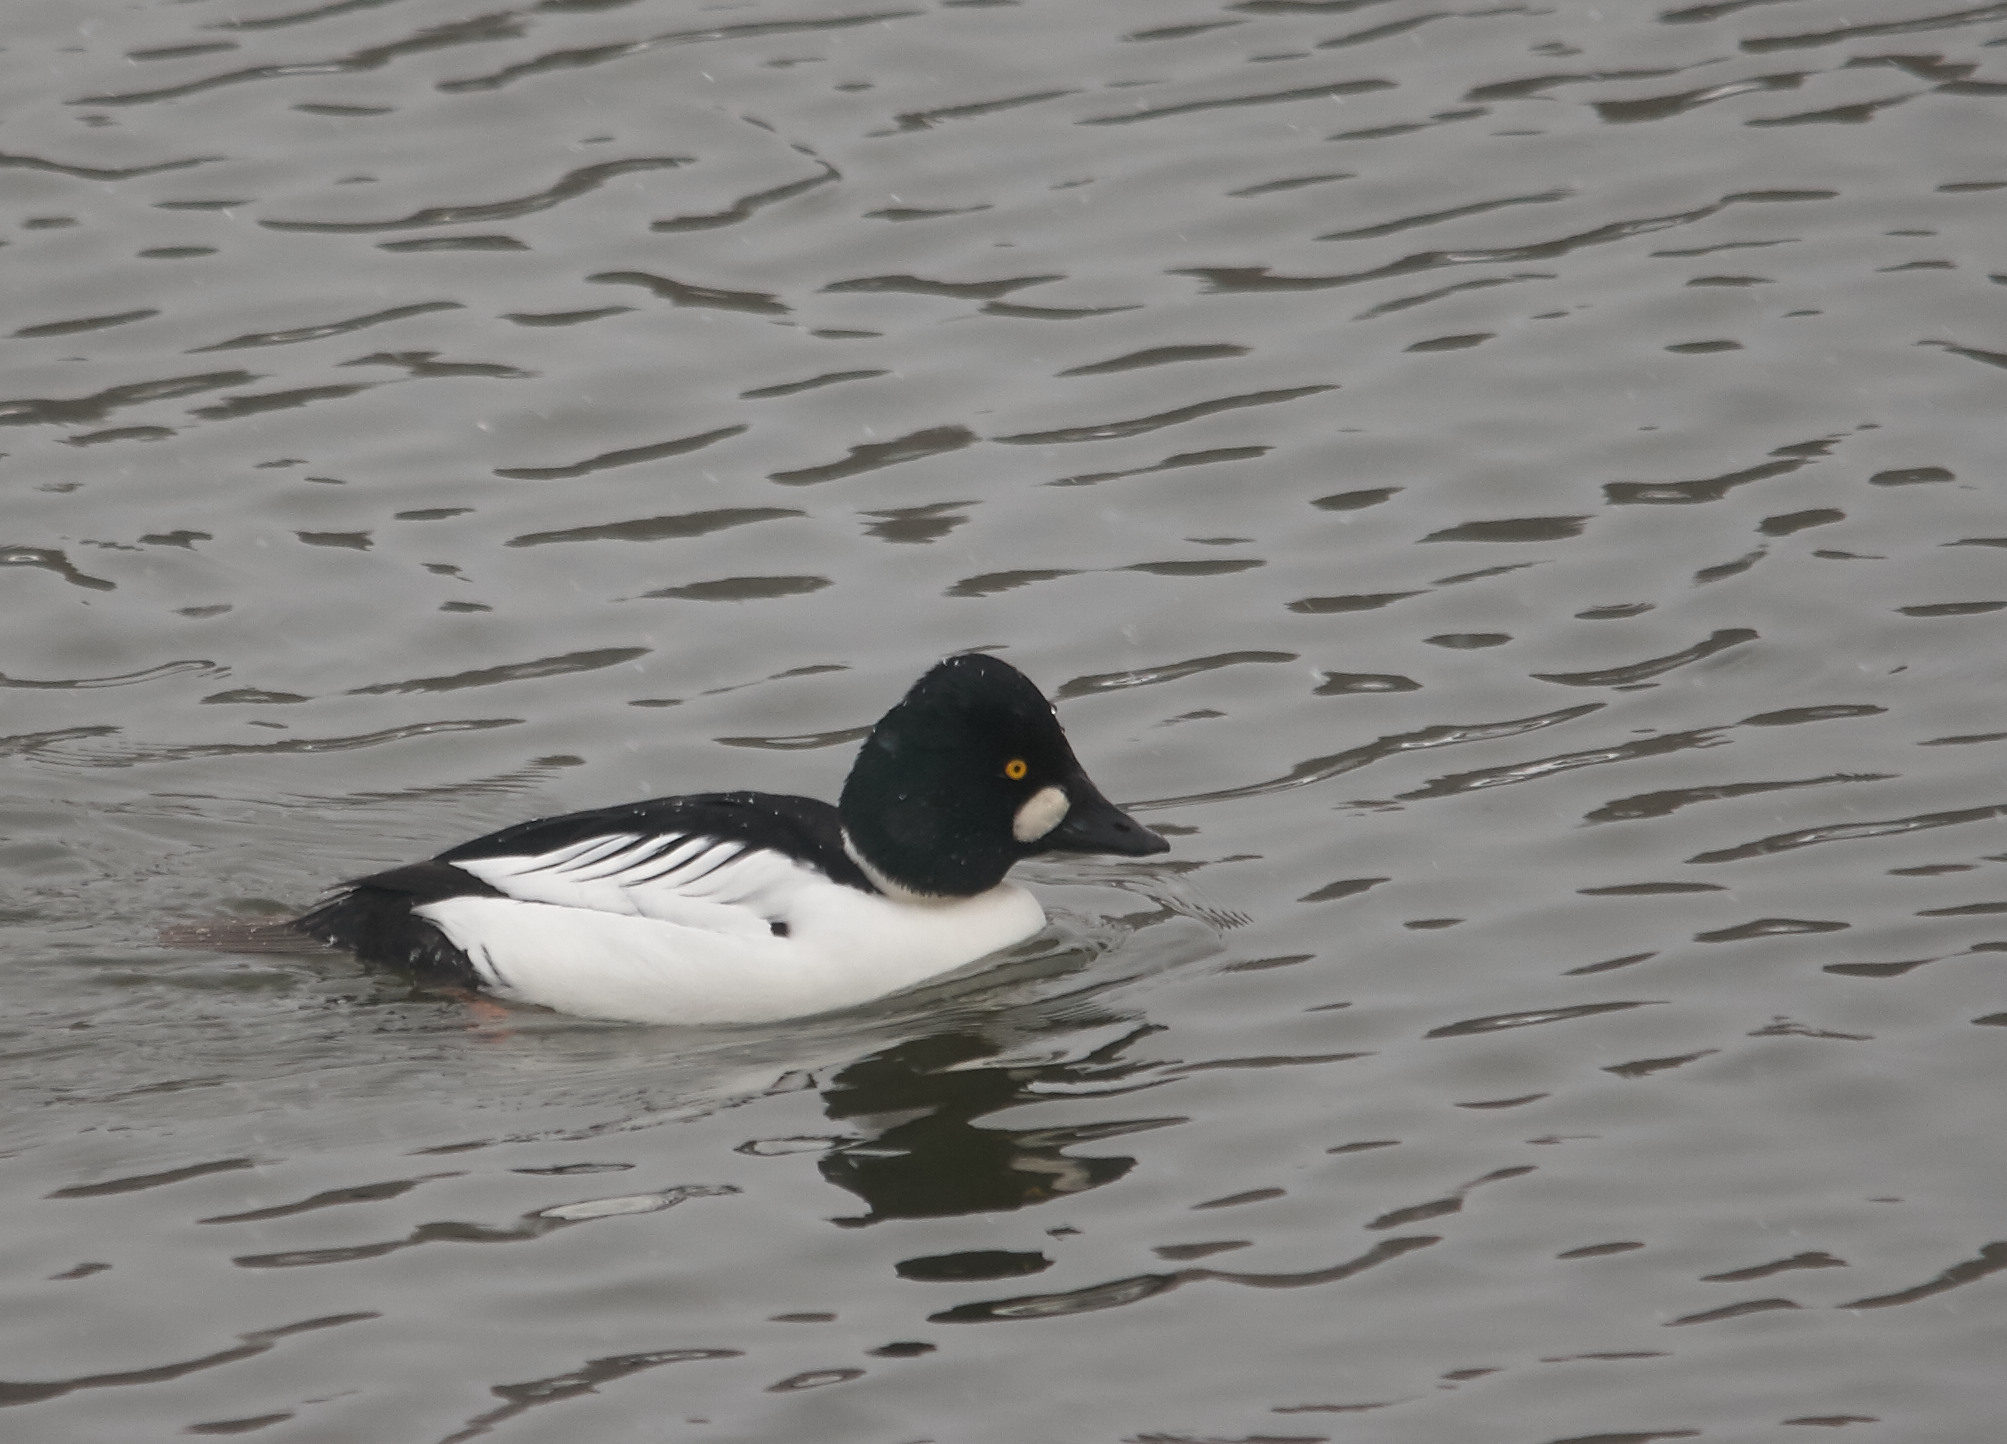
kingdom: Animalia
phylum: Chordata
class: Aves
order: Anseriformes
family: Anatidae
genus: Bucephala
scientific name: Bucephala clangula
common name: Common goldeneye
